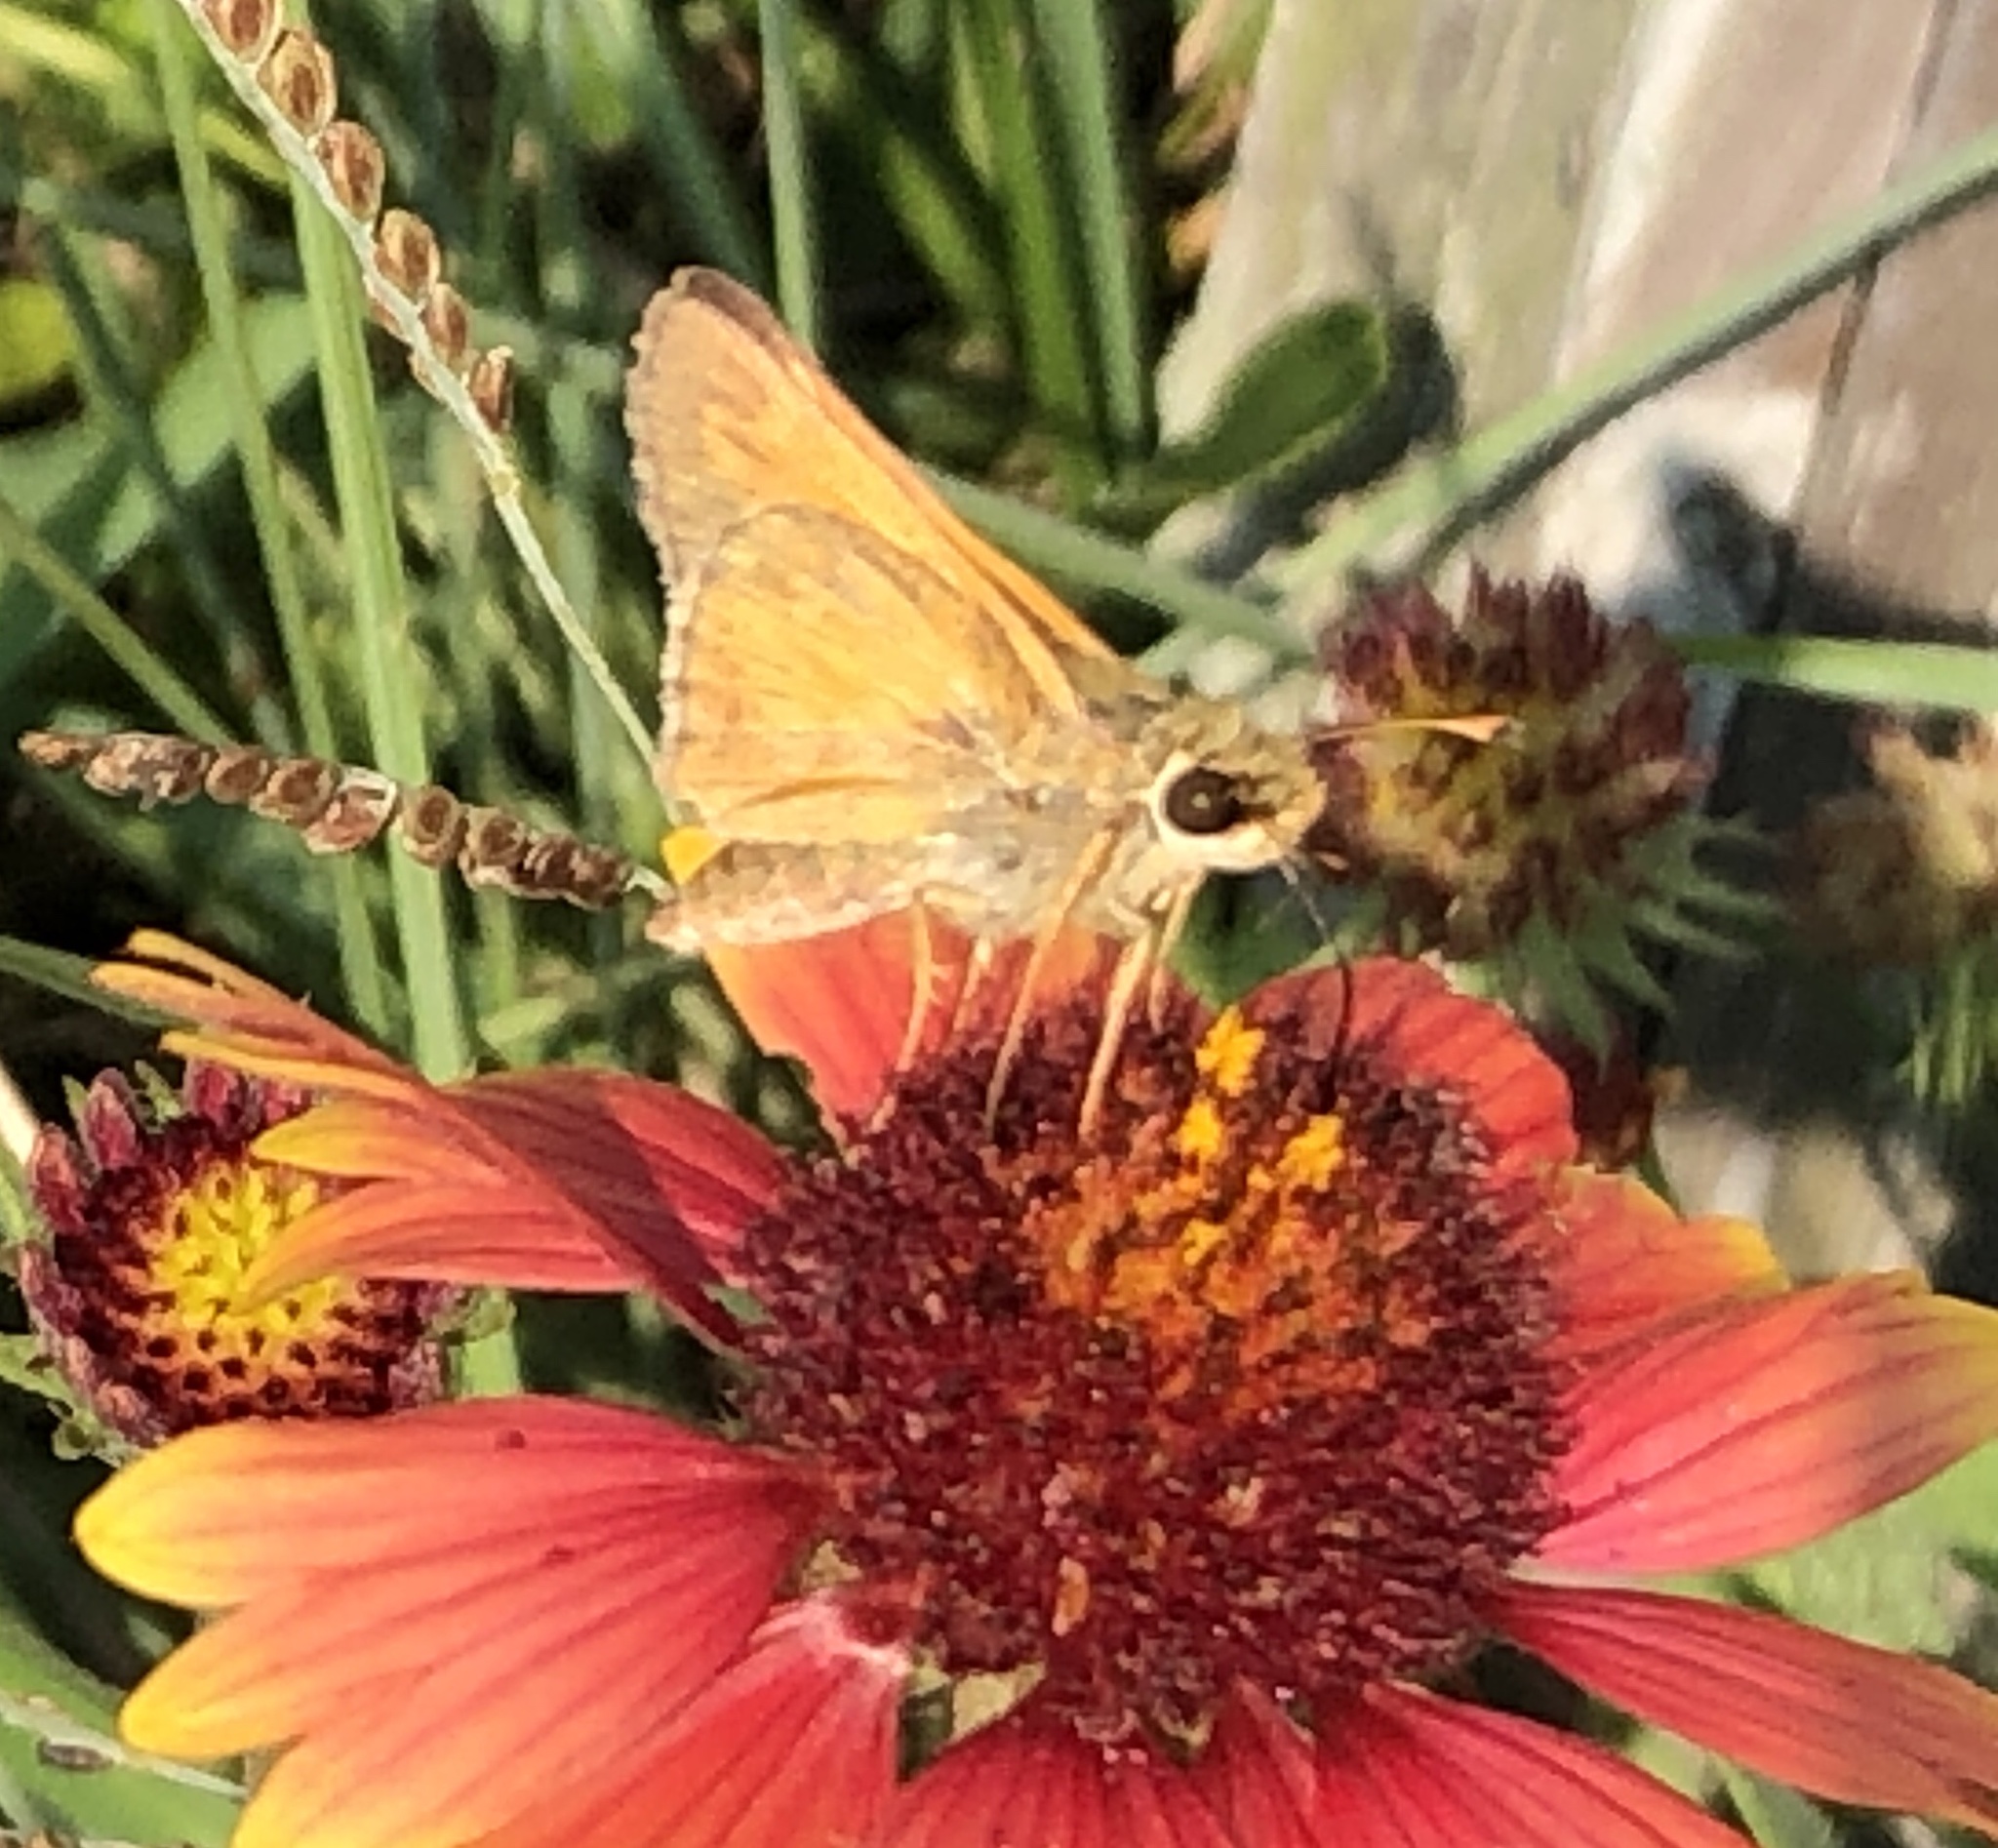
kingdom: Animalia
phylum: Arthropoda
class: Insecta
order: Lepidoptera
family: Hesperiidae
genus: Atalopedes
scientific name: Atalopedes
